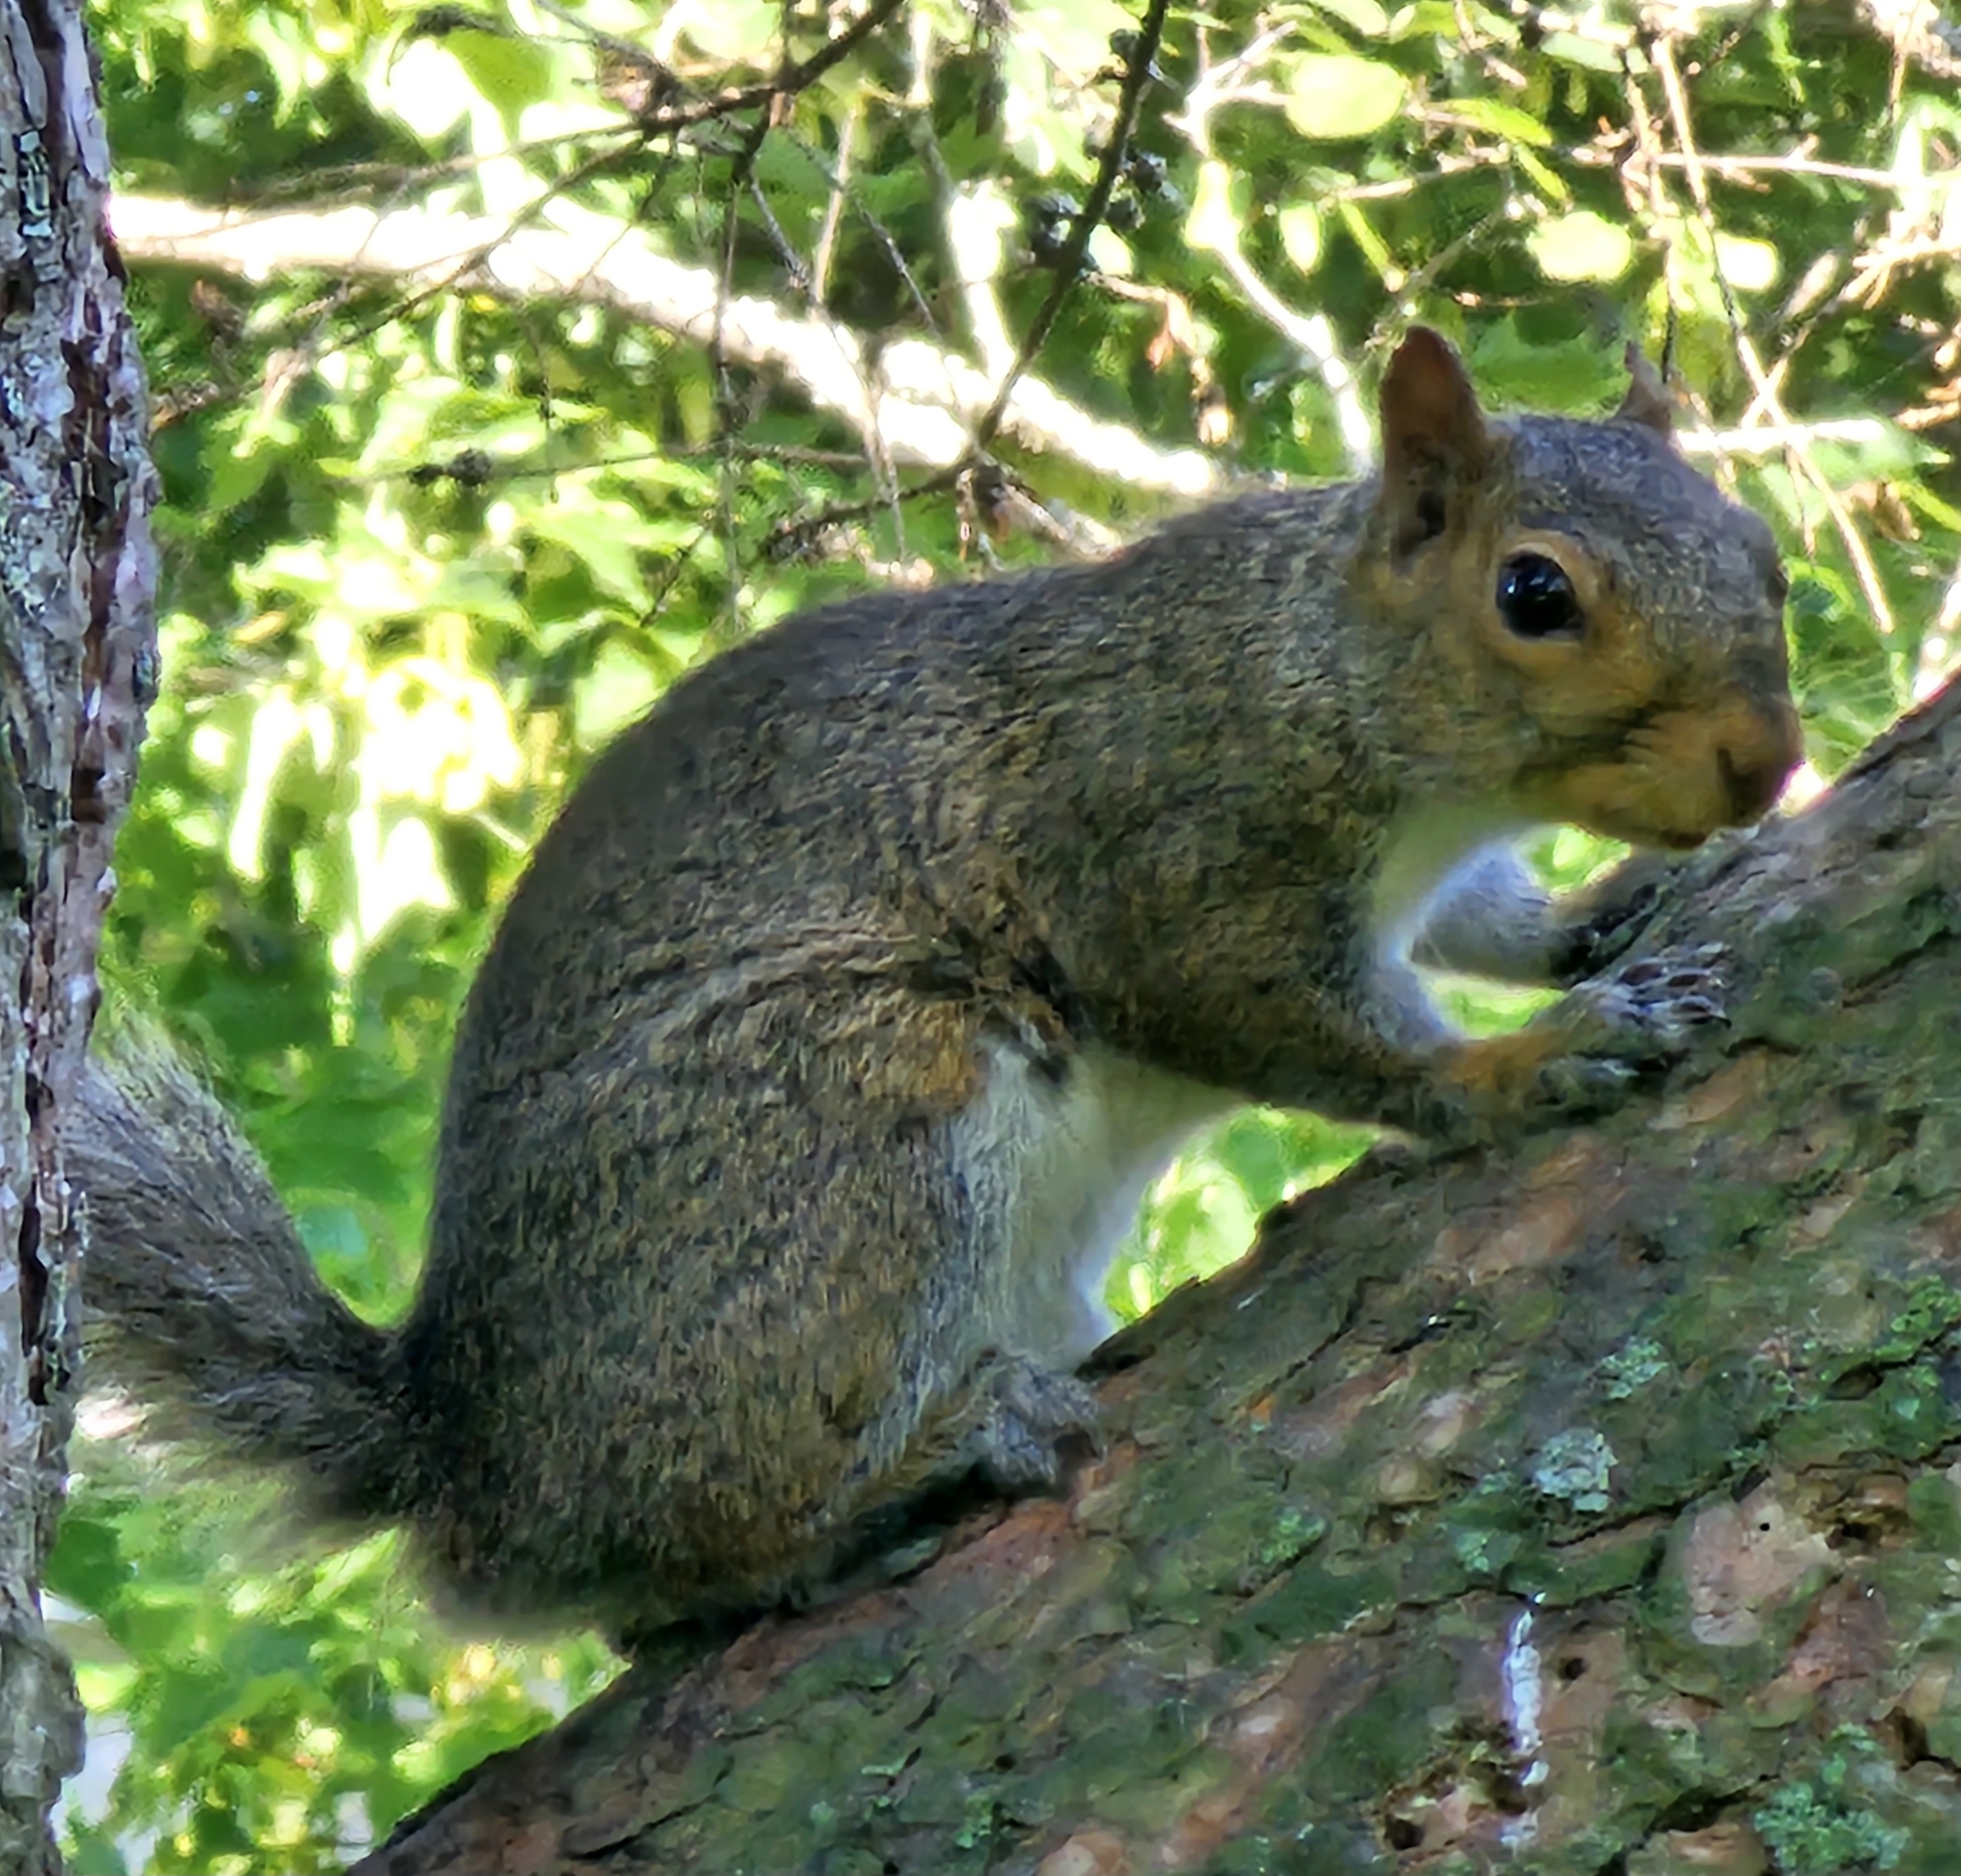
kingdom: Animalia
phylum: Chordata
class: Mammalia
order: Rodentia
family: Sciuridae
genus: Sciurus
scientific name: Sciurus carolinensis
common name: Eastern gray squirrel
